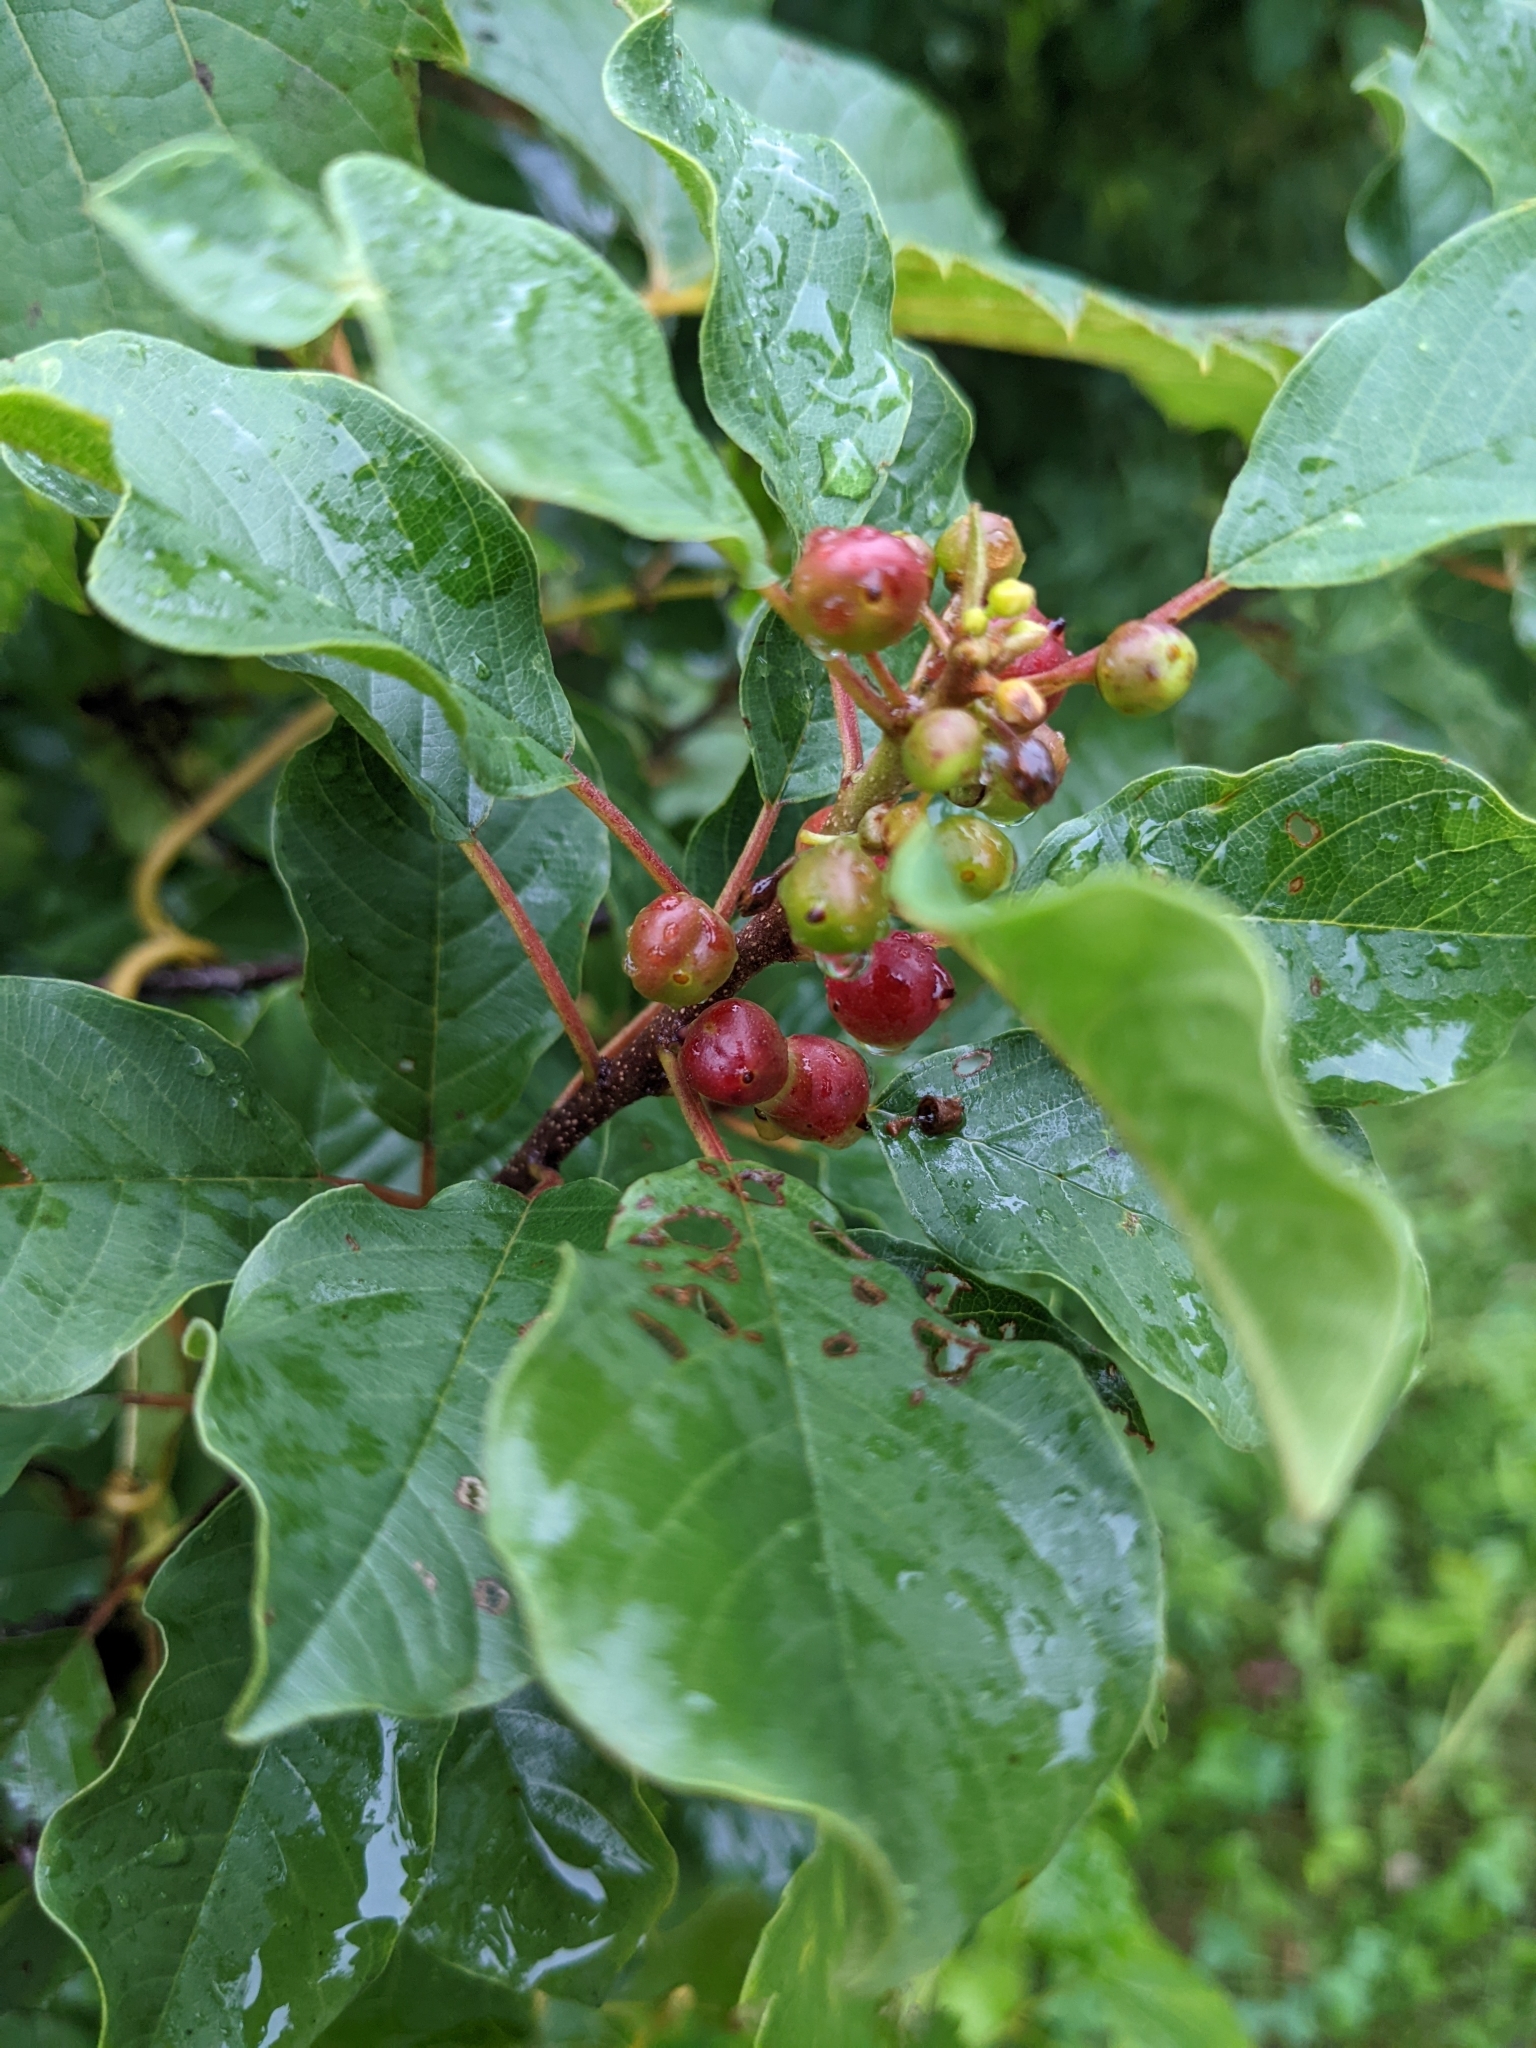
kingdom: Plantae
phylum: Tracheophyta
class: Magnoliopsida
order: Rosales
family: Rhamnaceae
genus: Frangula
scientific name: Frangula alnus
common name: Alder buckthorn
